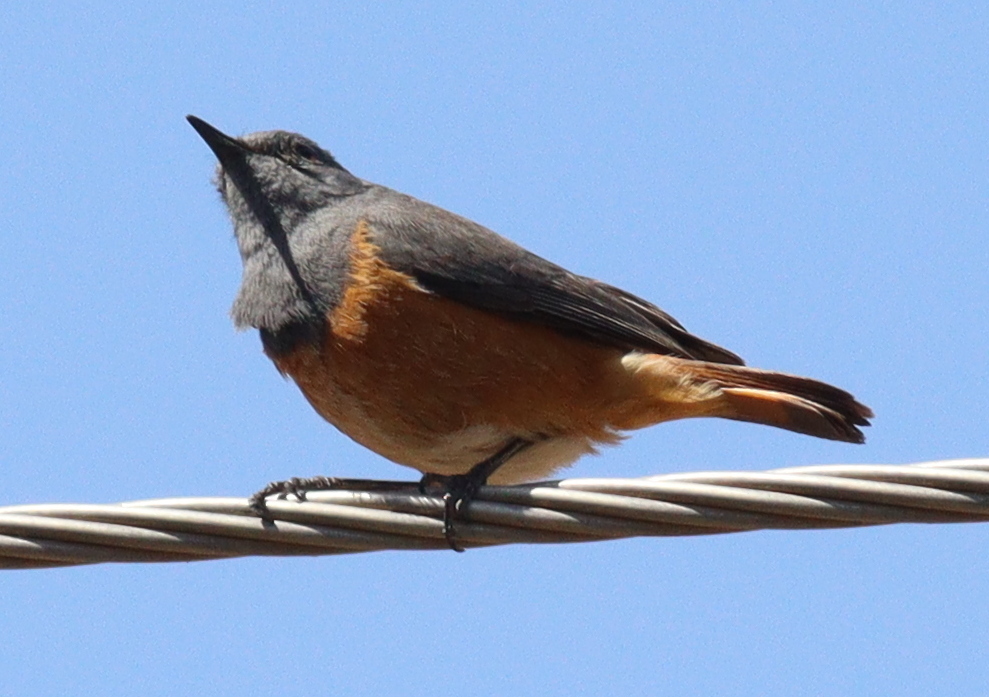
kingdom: Animalia
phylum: Chordata
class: Aves
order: Passeriformes
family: Muscicapidae
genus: Monticola
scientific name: Monticola rufocinereus
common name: Little rock thrush
